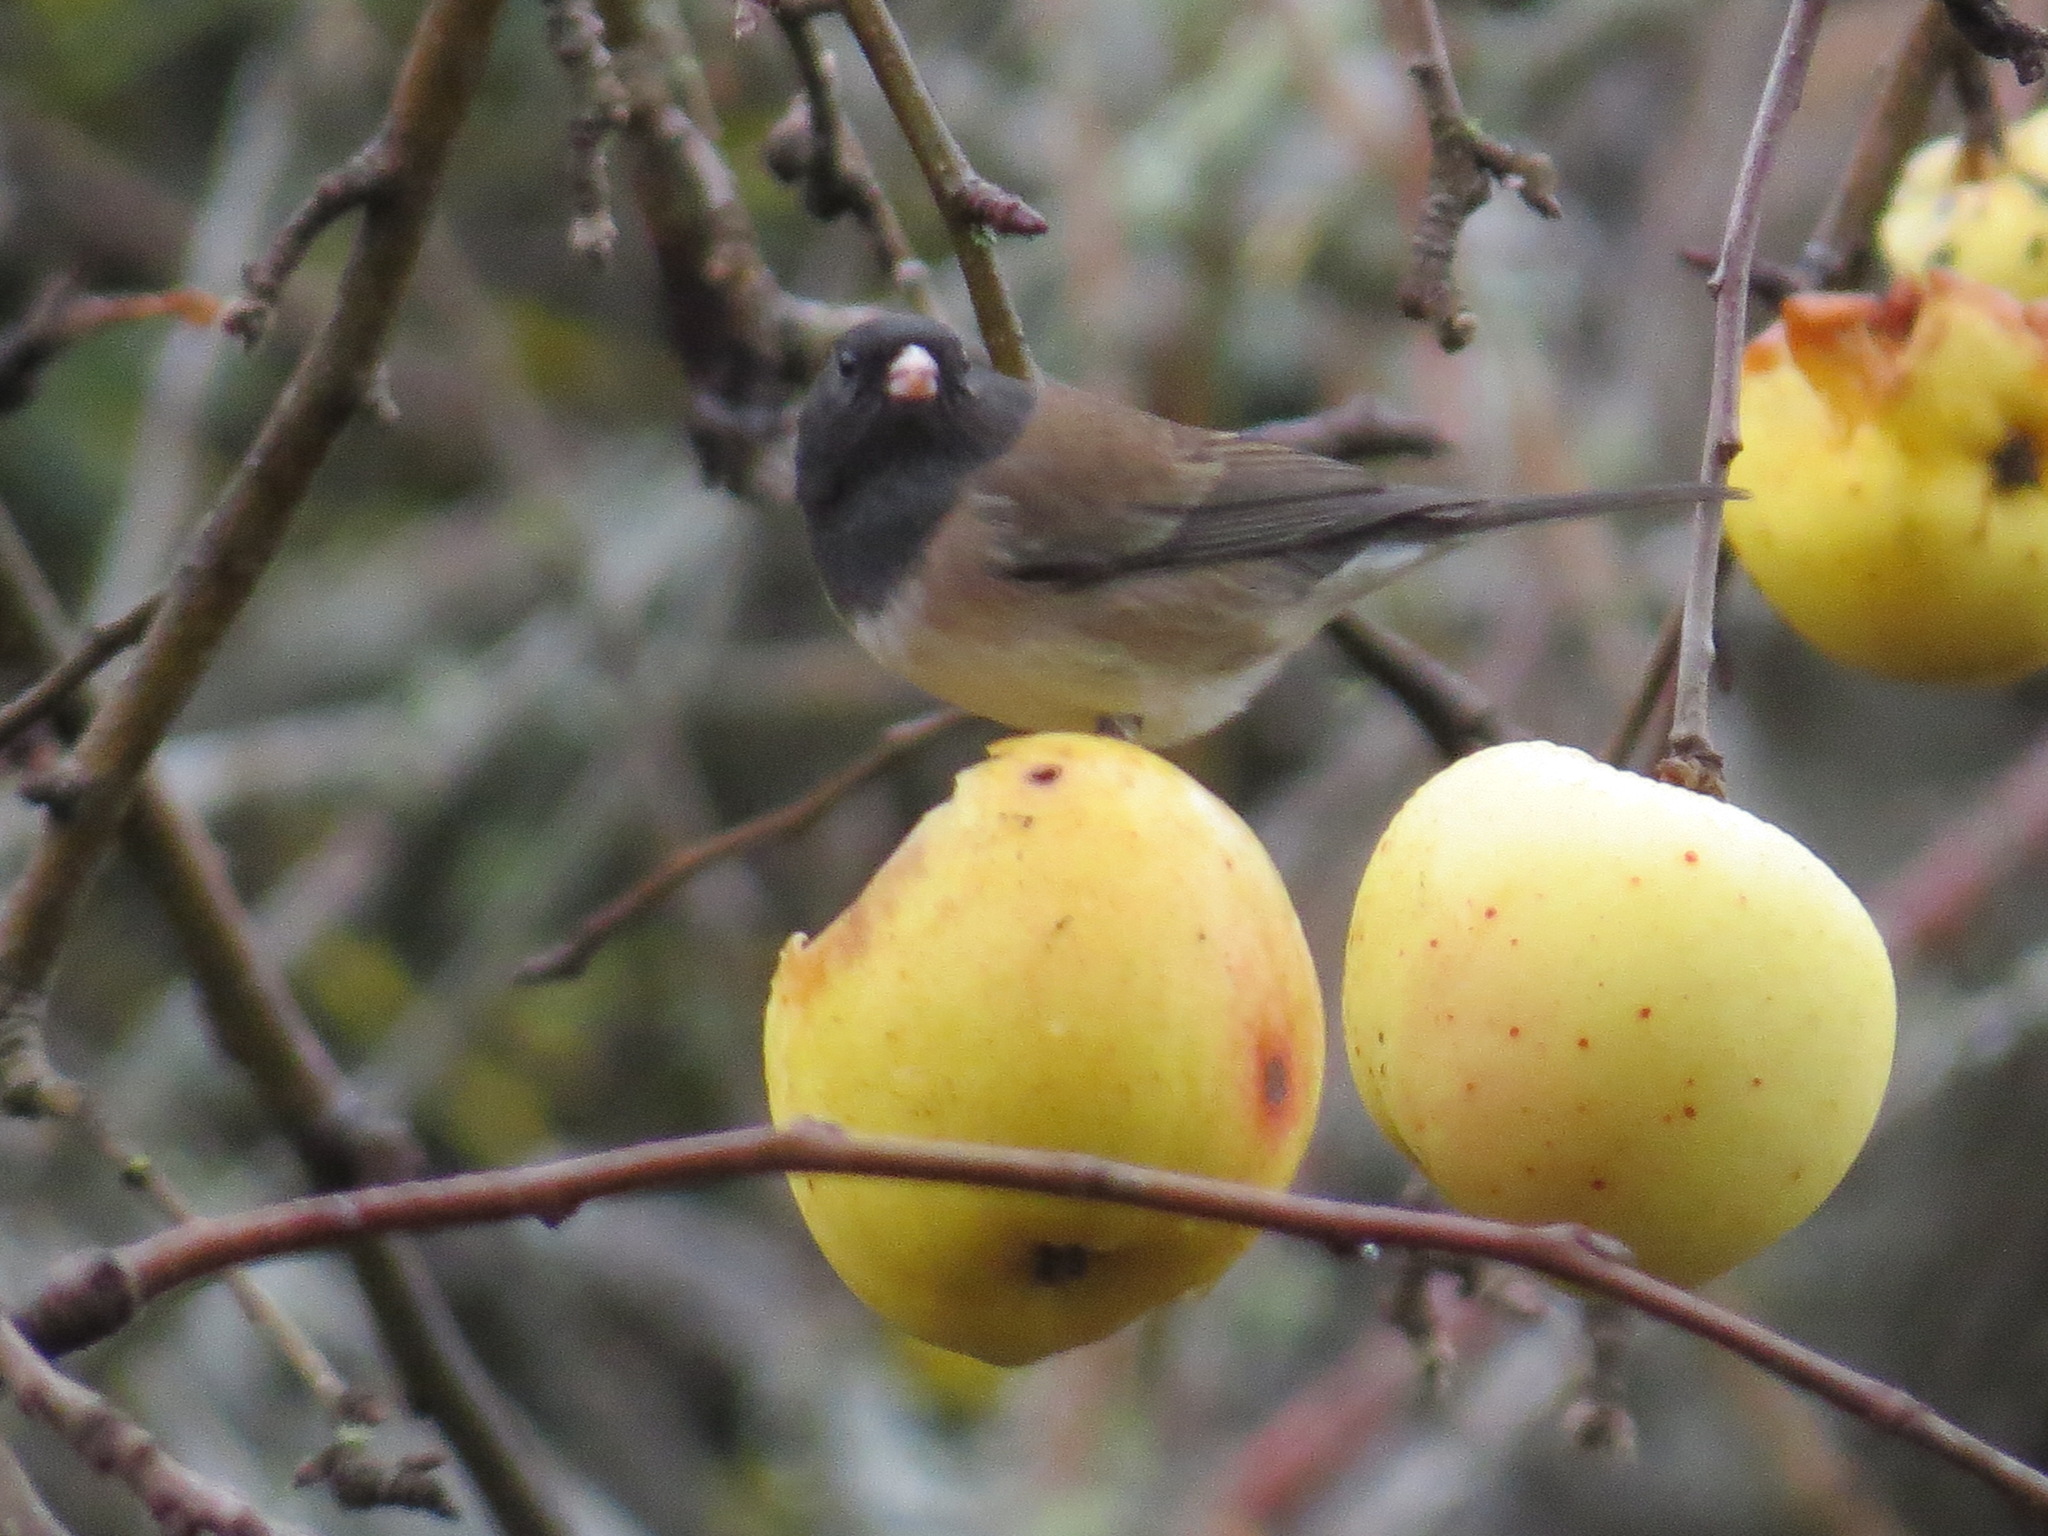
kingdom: Animalia
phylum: Chordata
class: Aves
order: Passeriformes
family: Passerellidae
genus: Junco
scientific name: Junco hyemalis
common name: Dark-eyed junco
